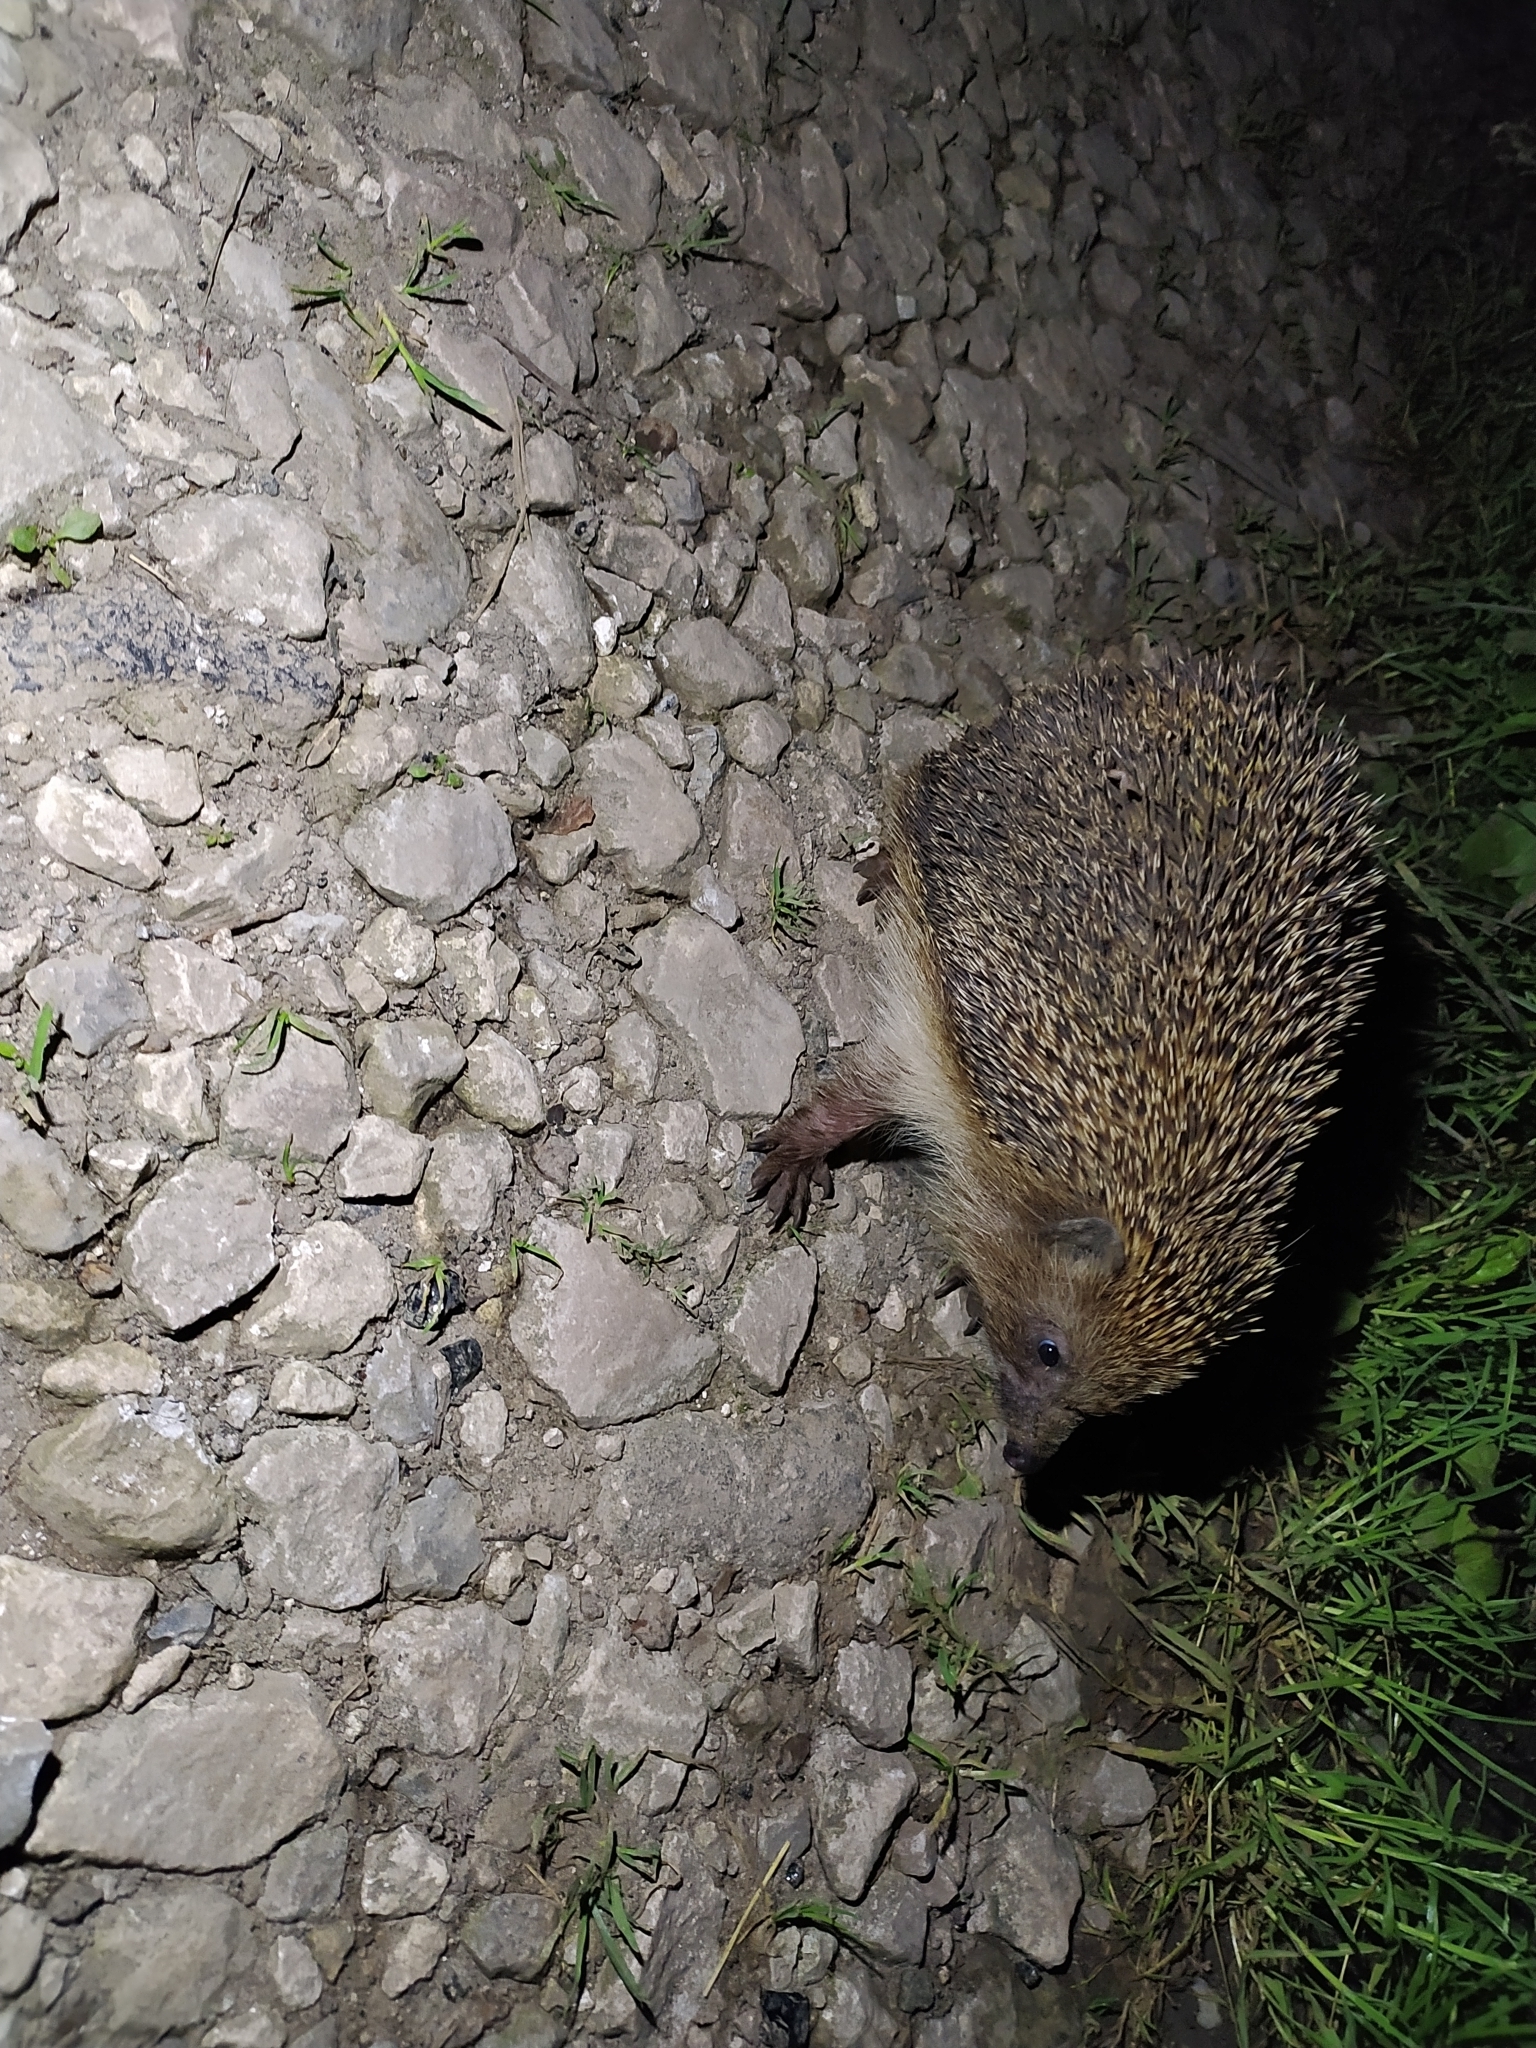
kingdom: Animalia
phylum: Chordata
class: Mammalia
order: Erinaceomorpha
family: Erinaceidae
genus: Erinaceus
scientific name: Erinaceus roumanicus
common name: Northern white-breasted hedgehog
